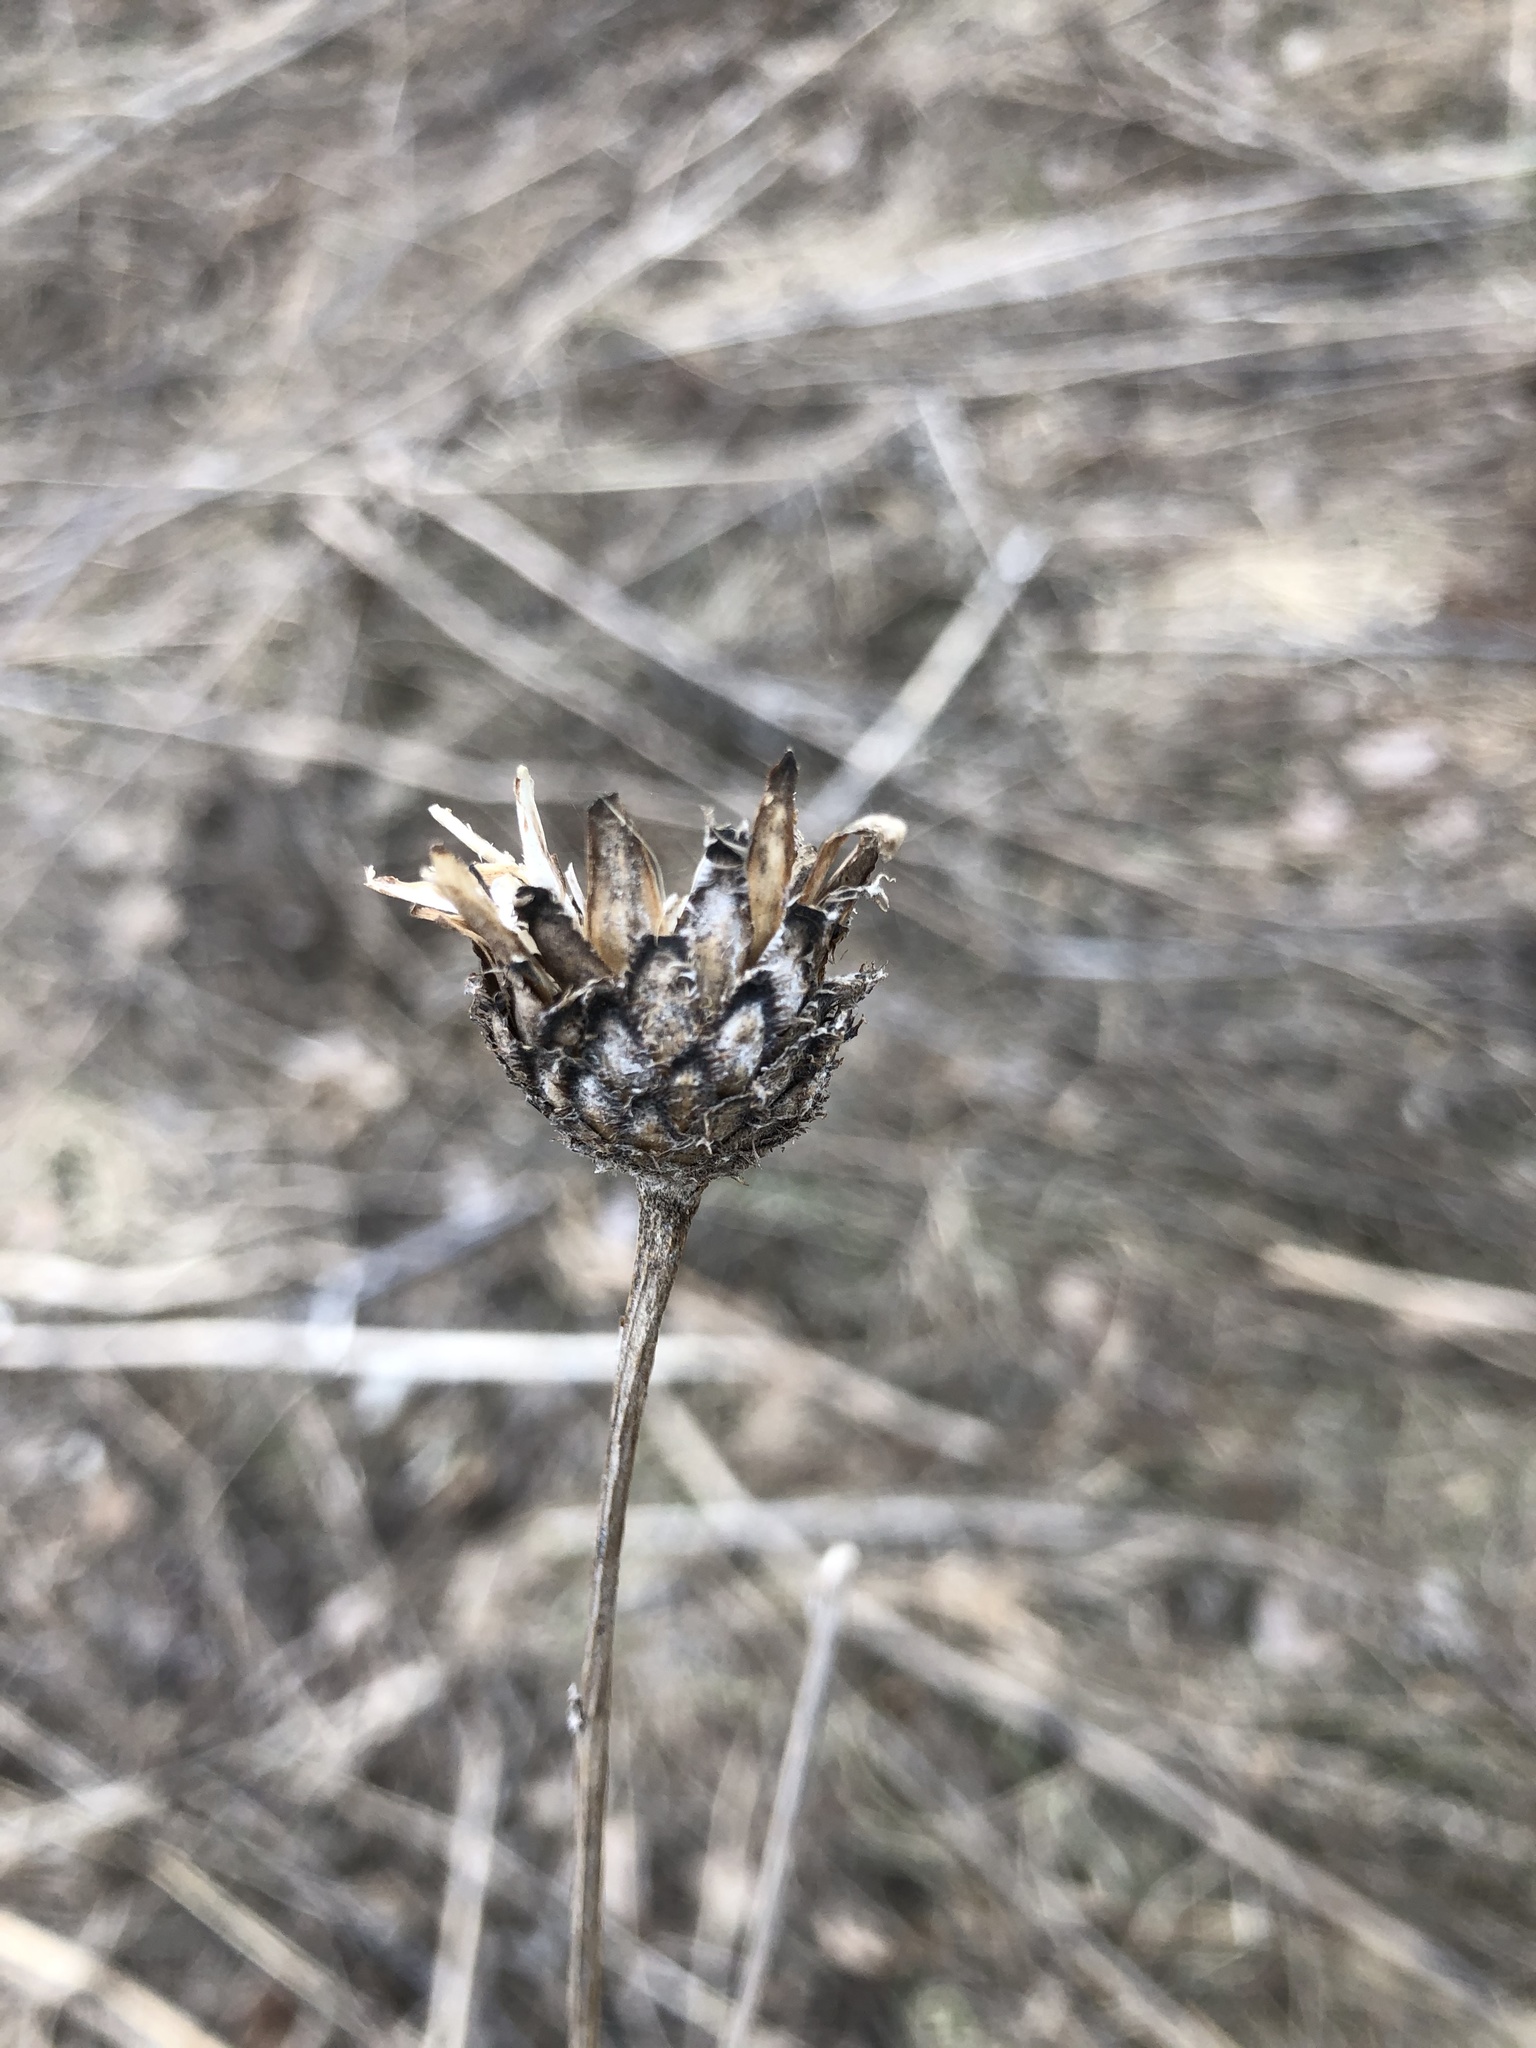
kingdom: Plantae
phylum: Tracheophyta
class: Magnoliopsida
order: Asterales
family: Asteraceae
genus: Centaurea
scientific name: Centaurea scabiosa
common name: Greater knapweed
